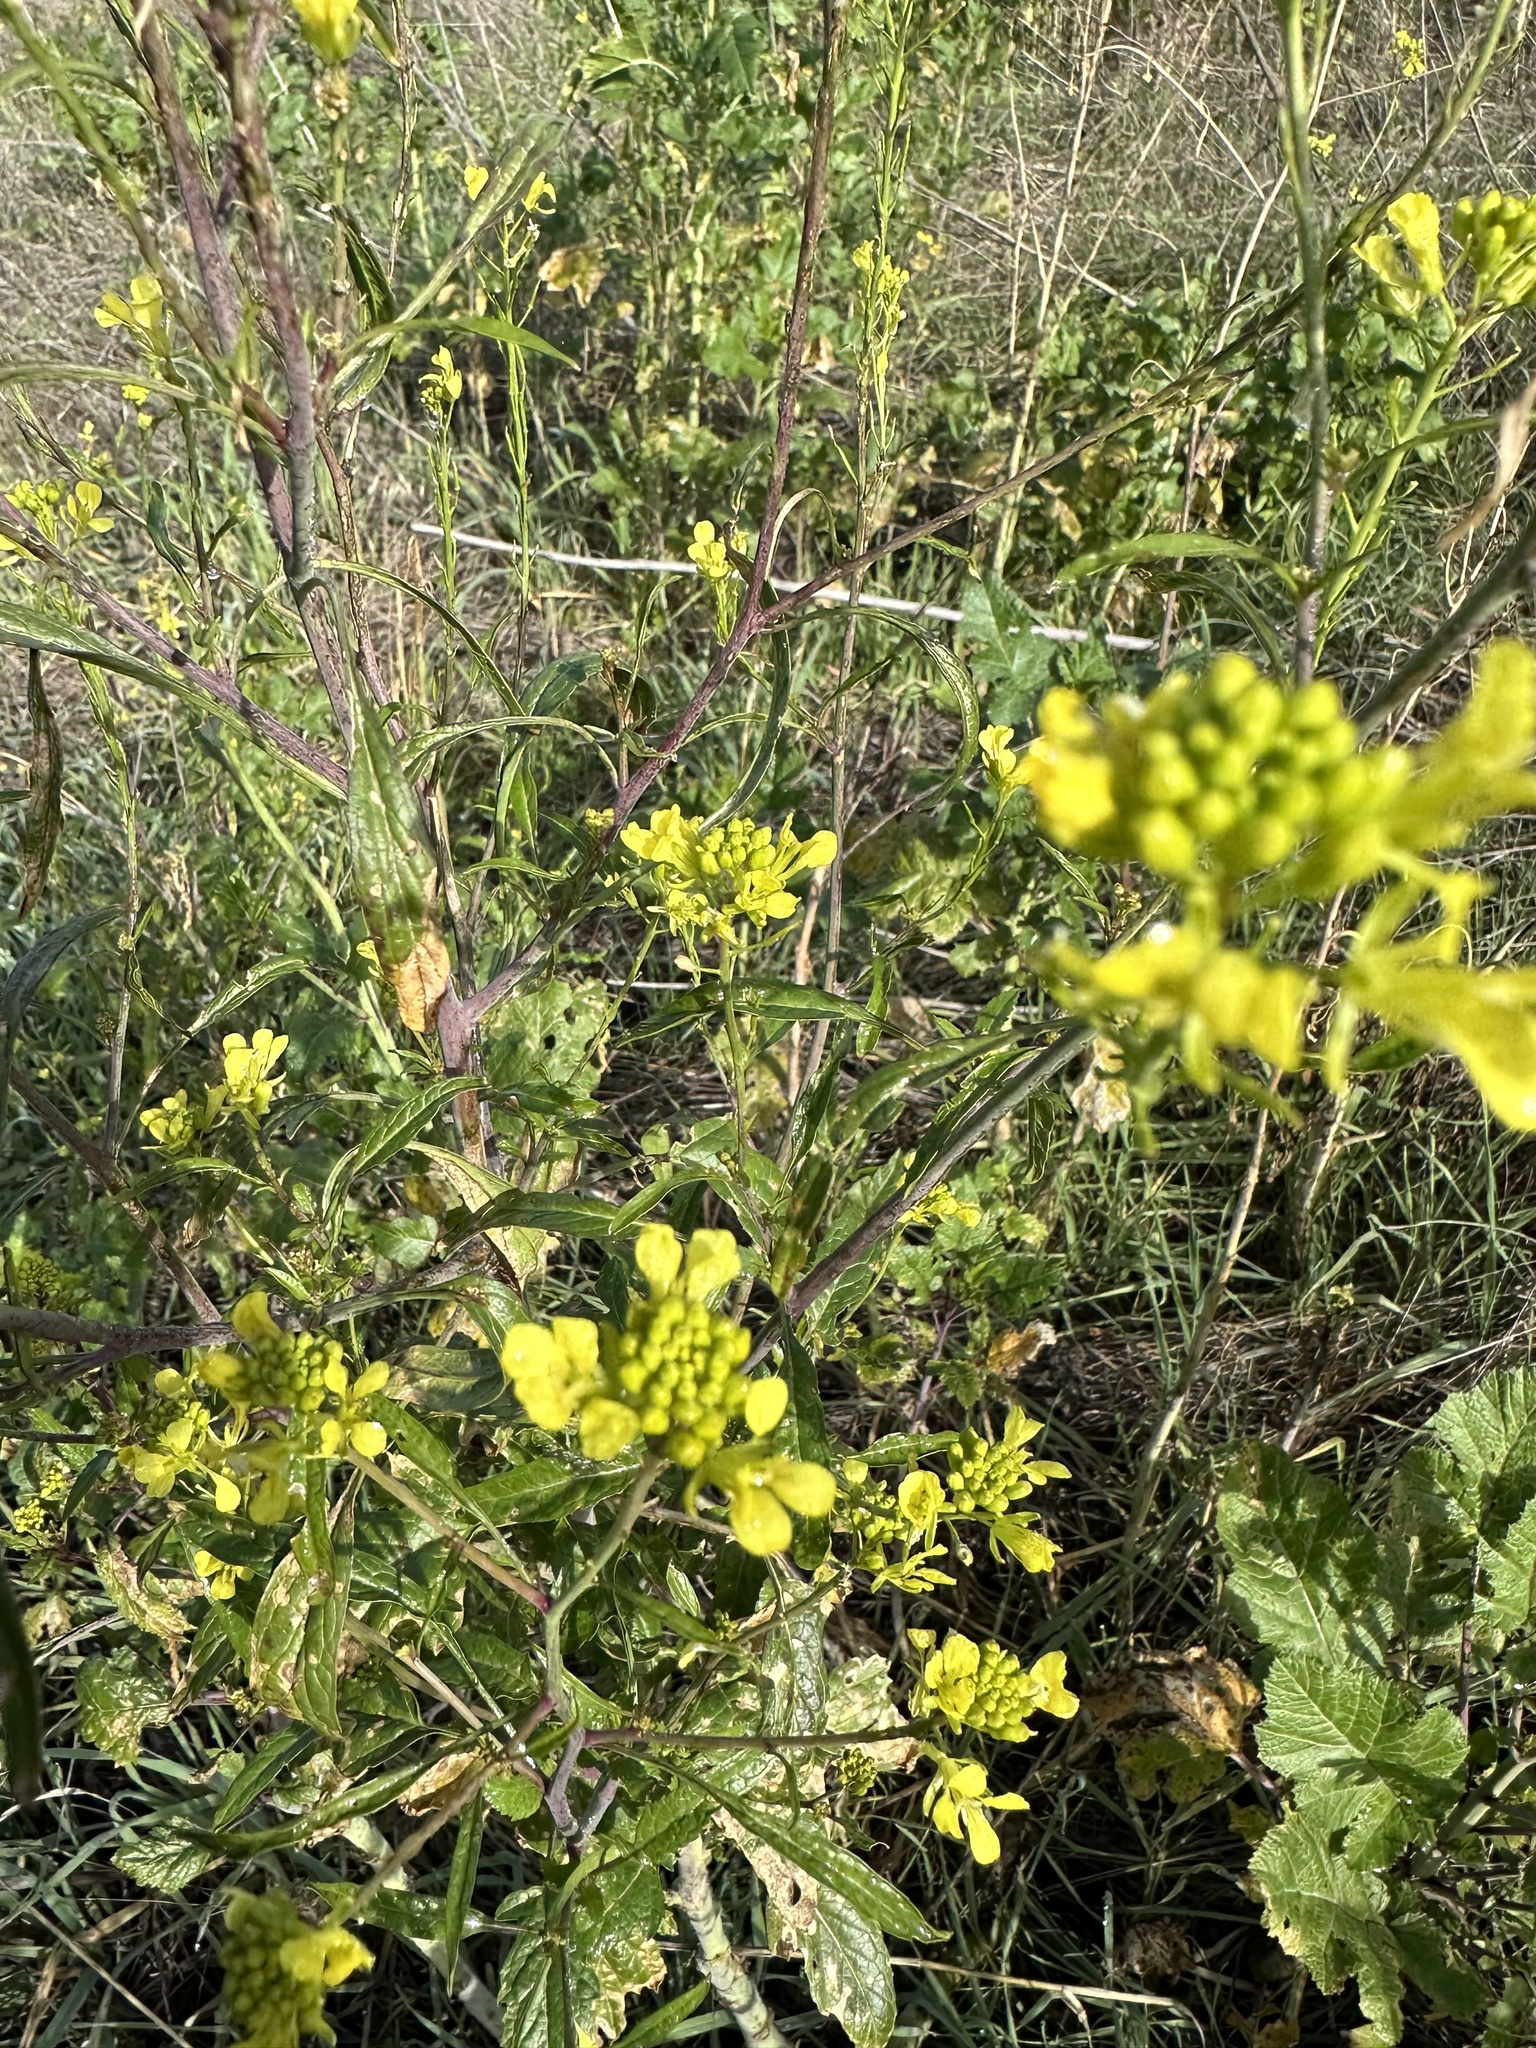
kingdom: Plantae
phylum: Tracheophyta
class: Magnoliopsida
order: Brassicales
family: Brassicaceae
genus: Brassica
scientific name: Brassica nigra
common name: Black mustard
